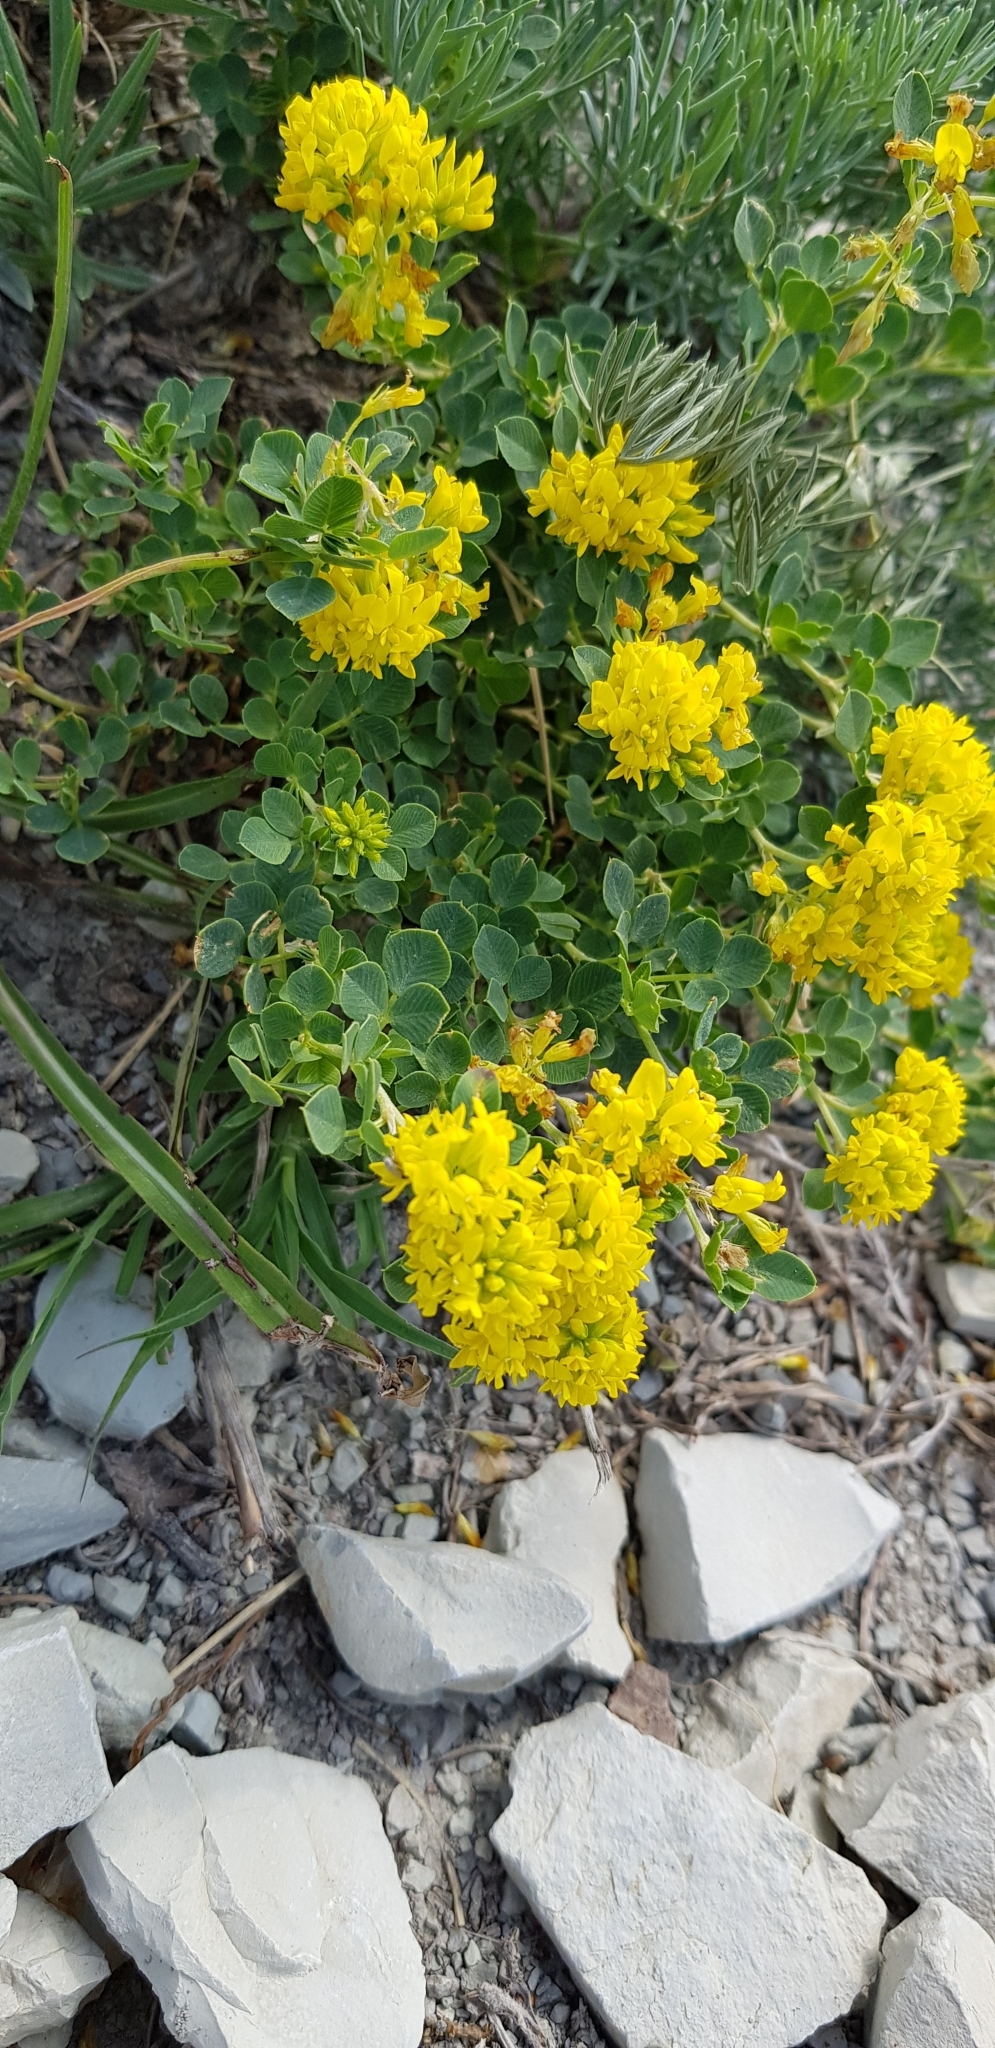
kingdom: Plantae
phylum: Tracheophyta
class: Magnoliopsida
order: Fabales
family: Fabaceae
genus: Medicago
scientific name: Medicago cretacea
